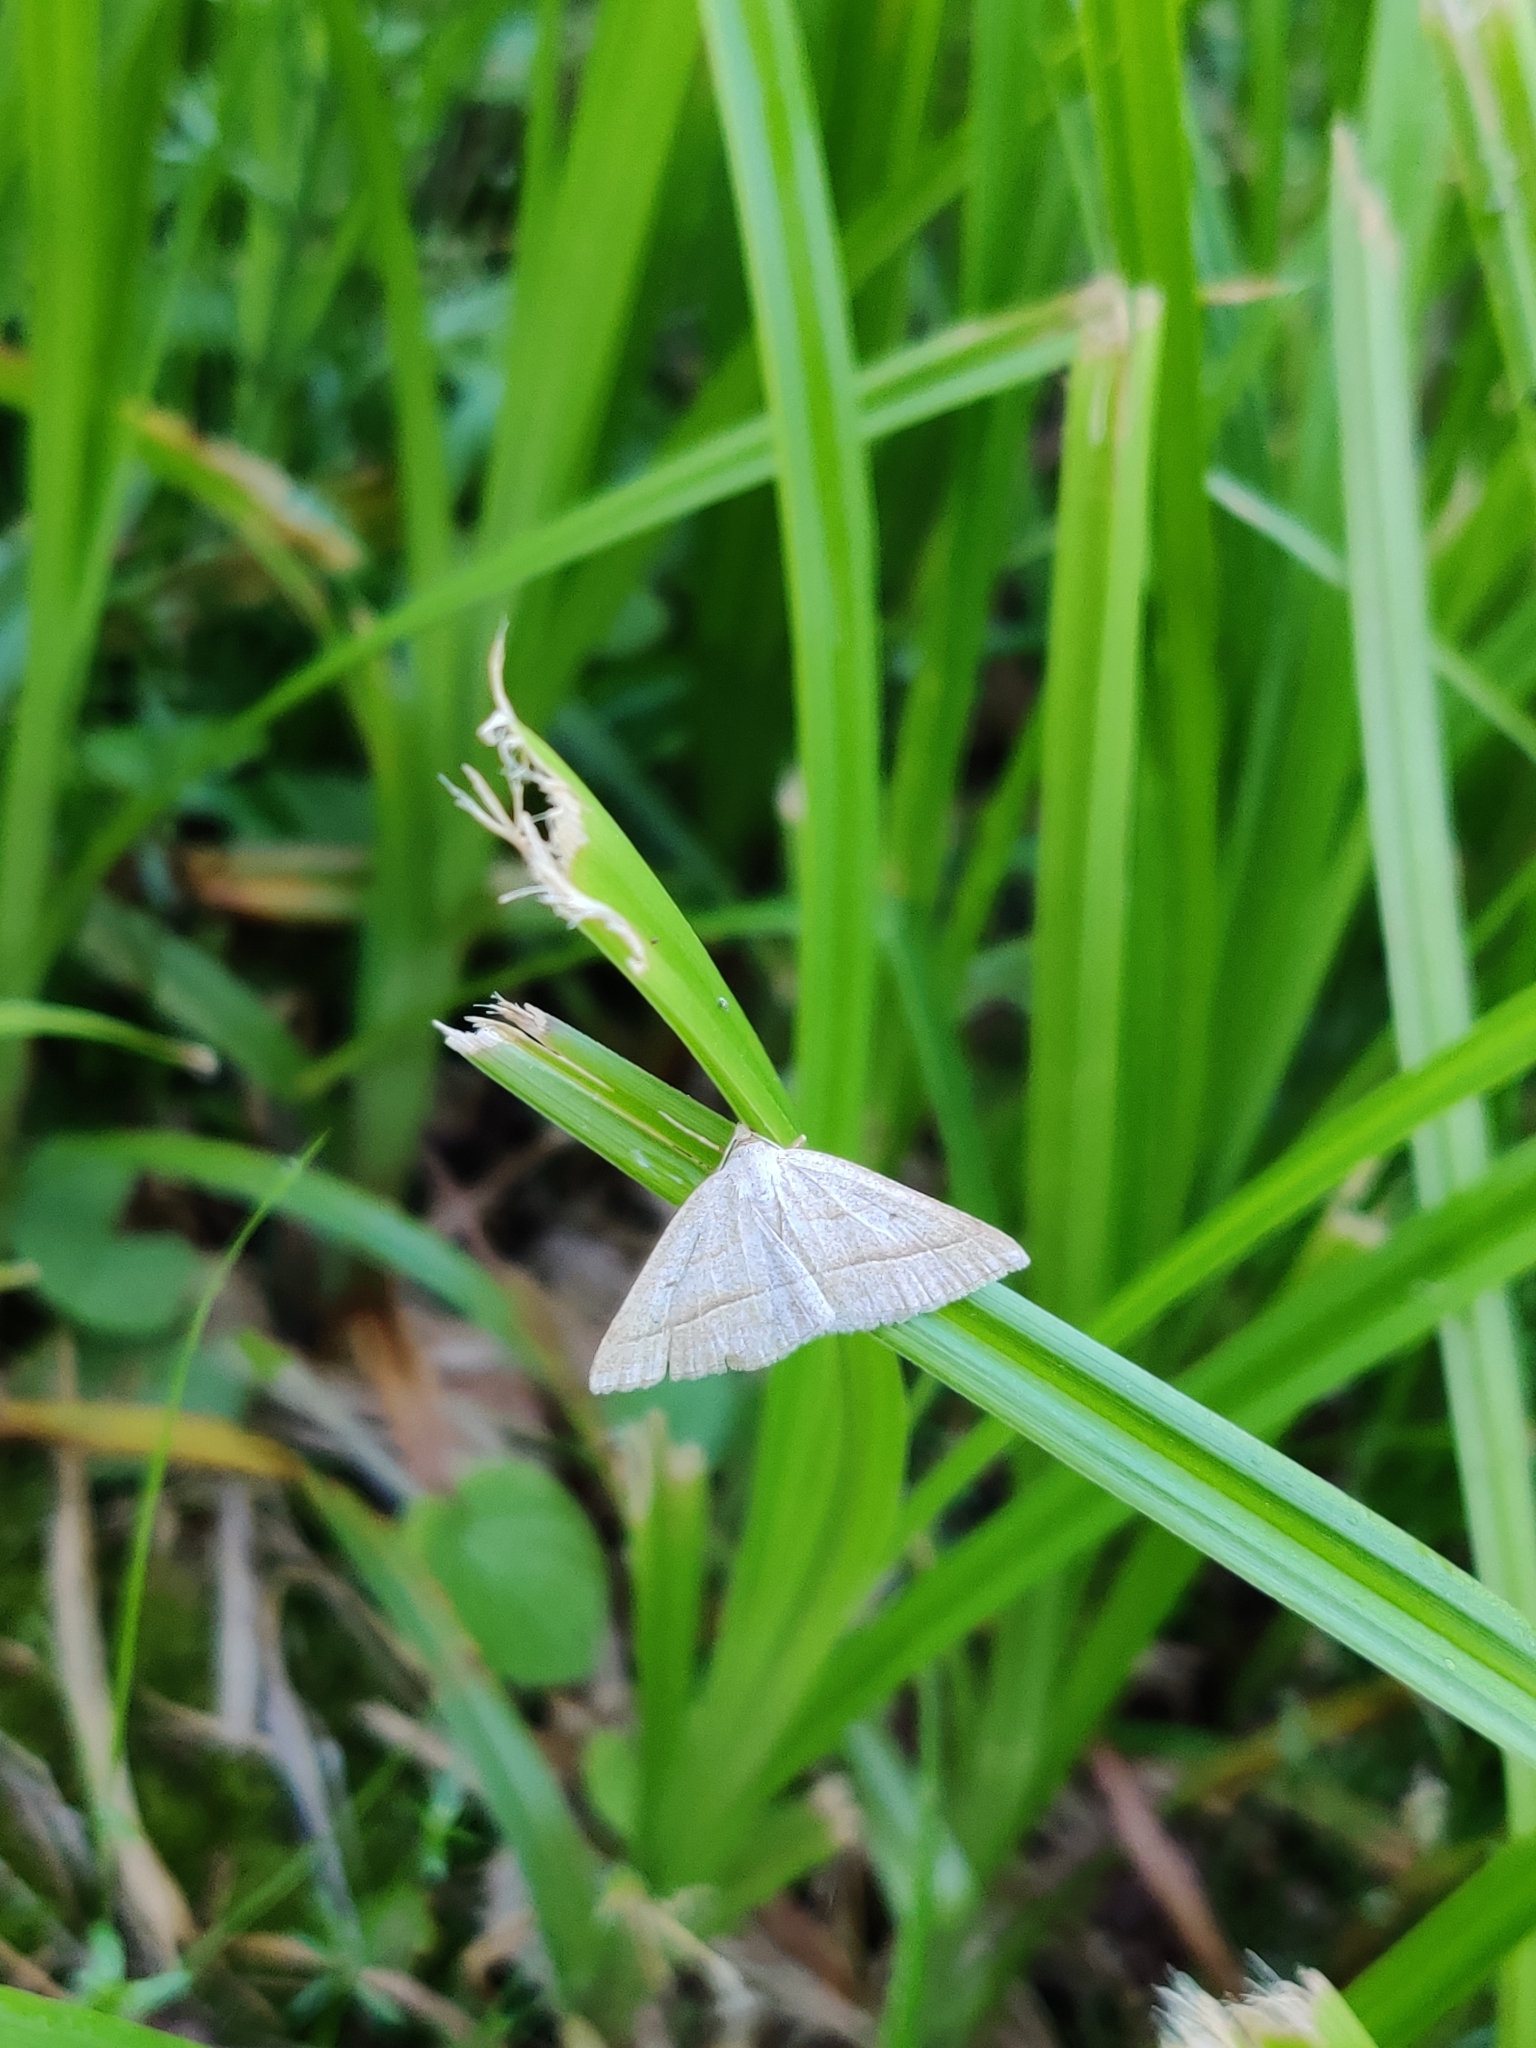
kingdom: Animalia
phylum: Arthropoda
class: Insecta
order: Lepidoptera
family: Pterophoridae
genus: Pterophorus
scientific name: Pterophorus Petrophora chlorosata
